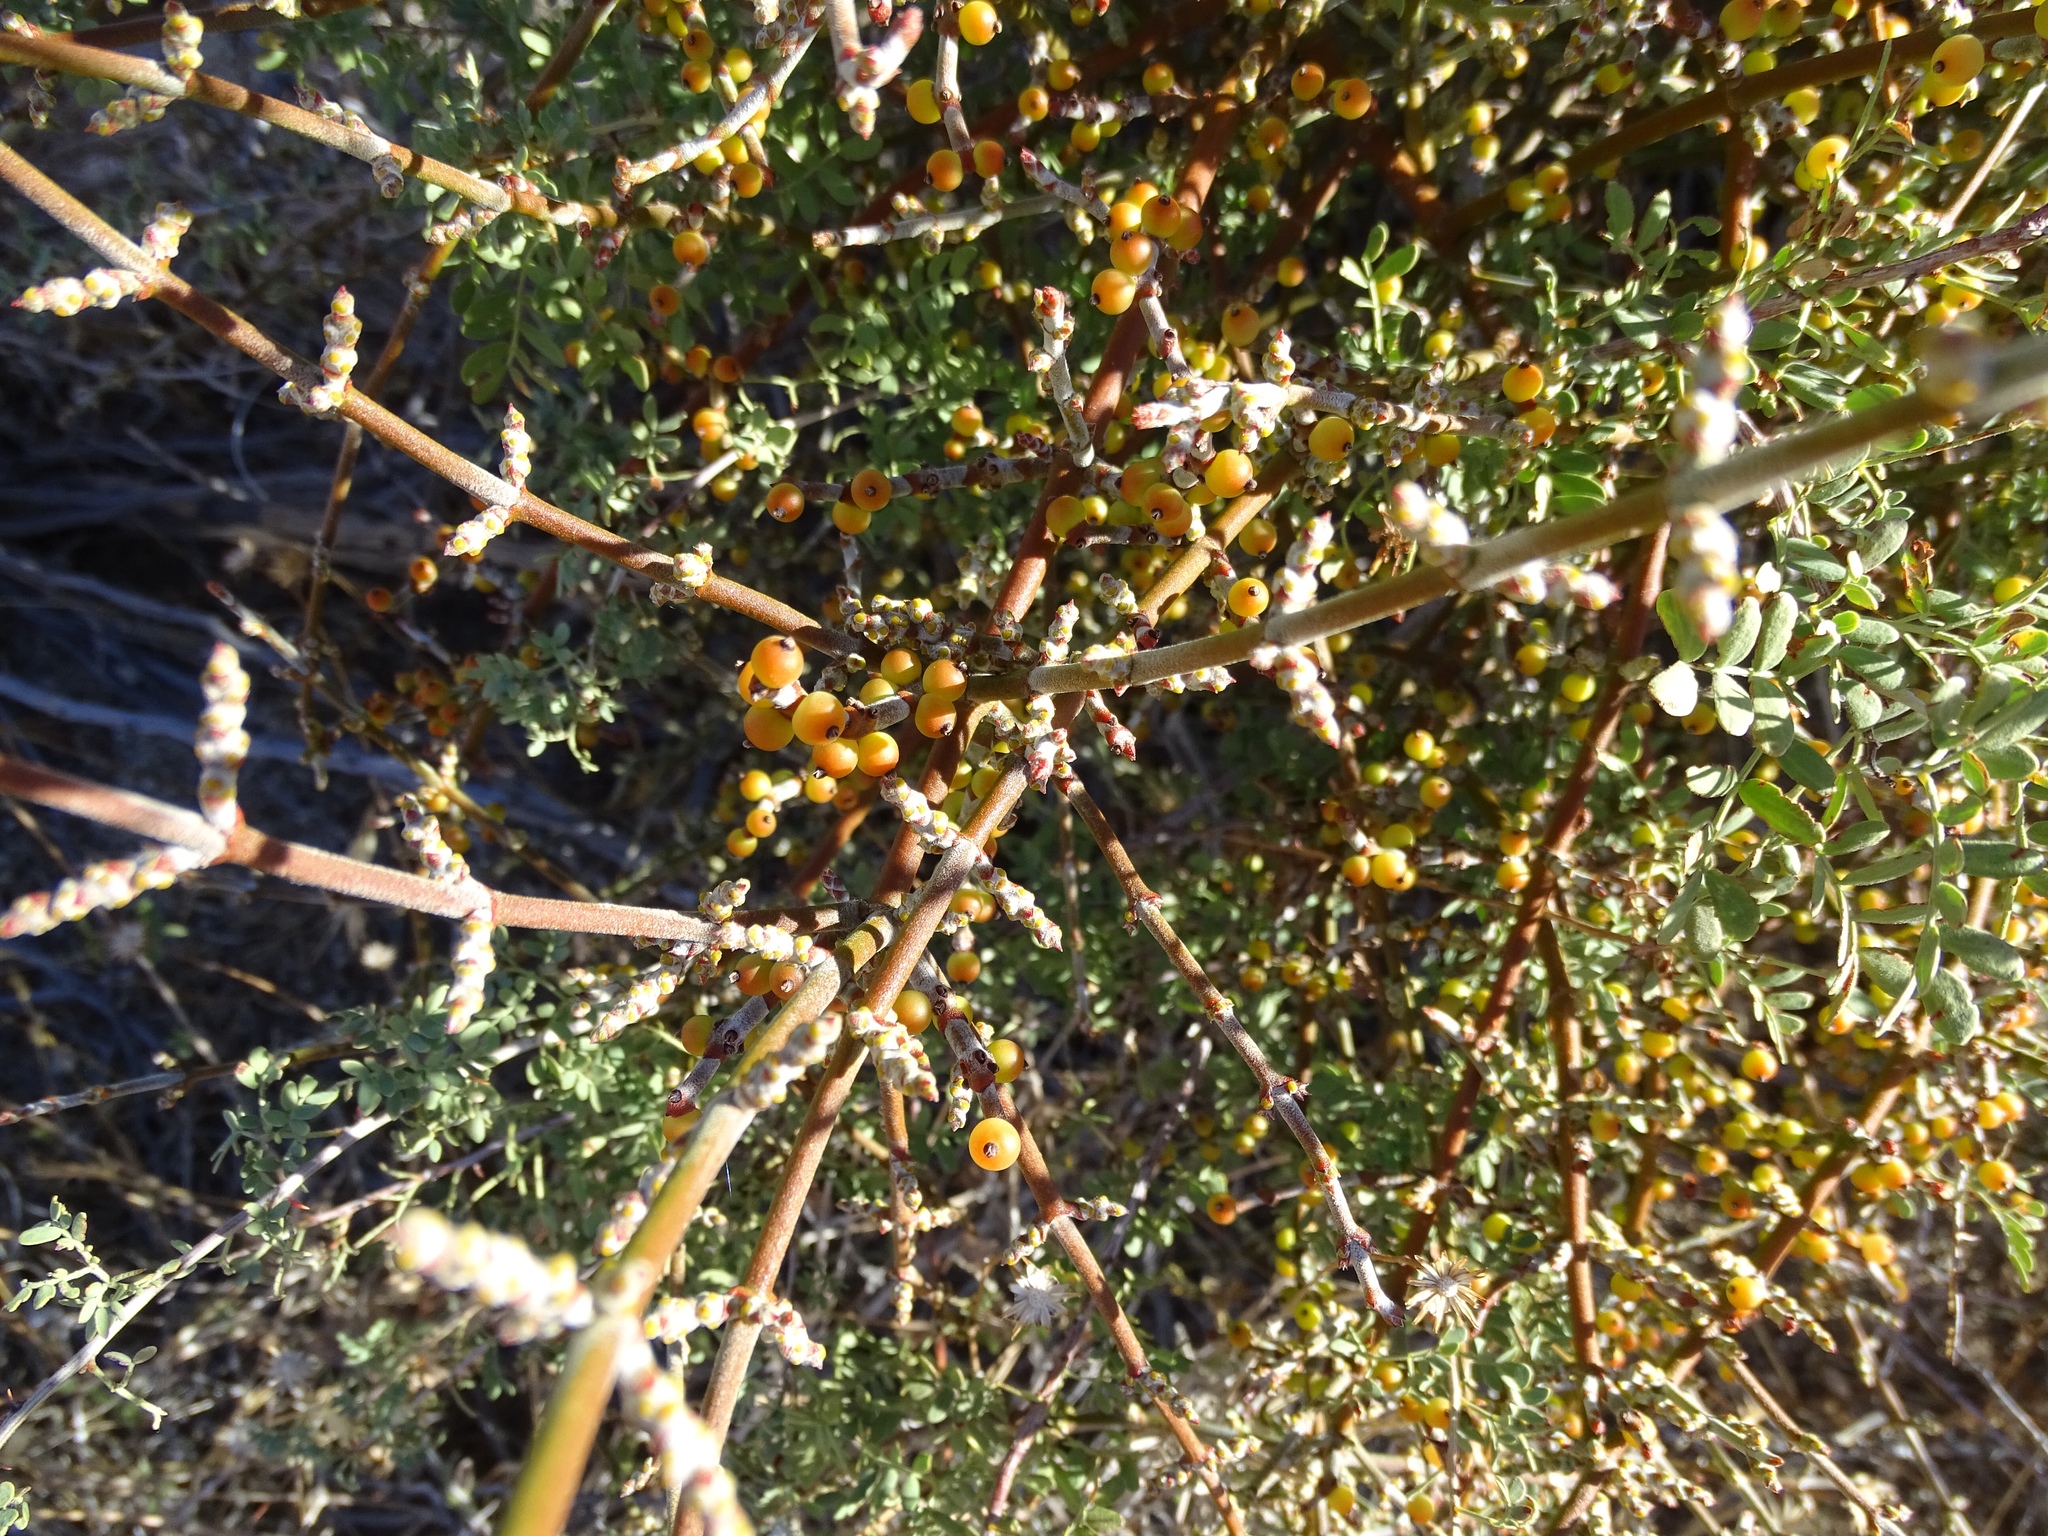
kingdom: Plantae
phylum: Tracheophyta
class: Magnoliopsida
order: Santalales
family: Viscaceae
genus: Phoradendron
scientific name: Phoradendron californicum
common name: Acacia mistletoe
